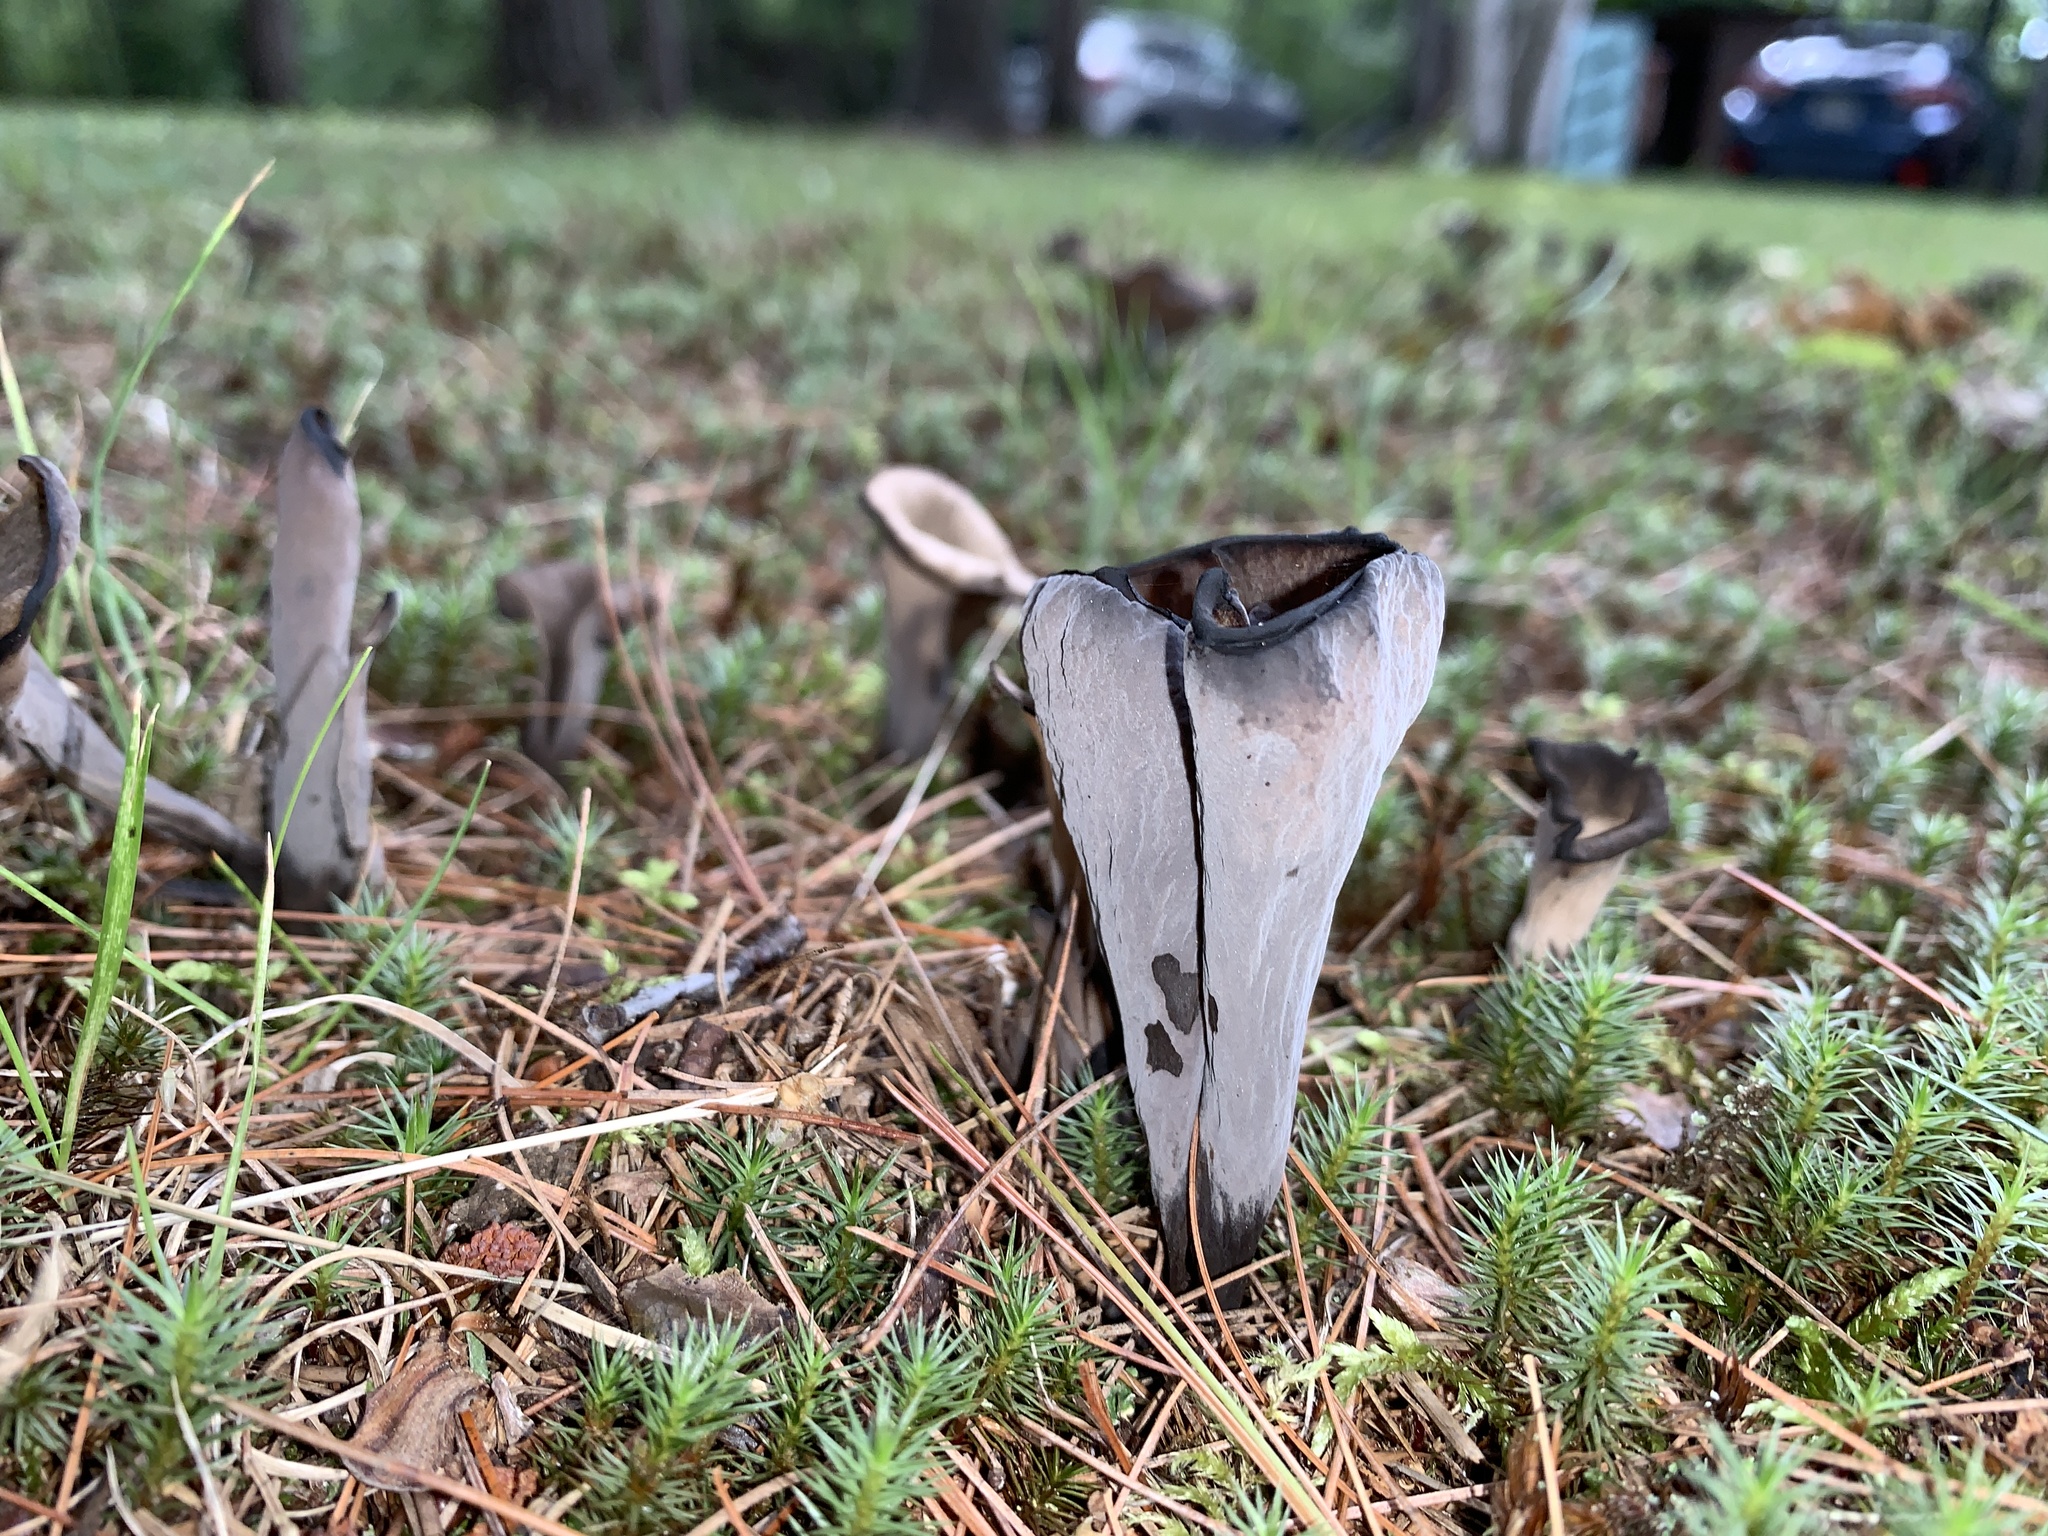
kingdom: Fungi
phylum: Basidiomycota
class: Agaricomycetes
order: Cantharellales
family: Hydnaceae
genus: Craterellus
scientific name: Craterellus cornucopioides
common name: Horn of plenty
